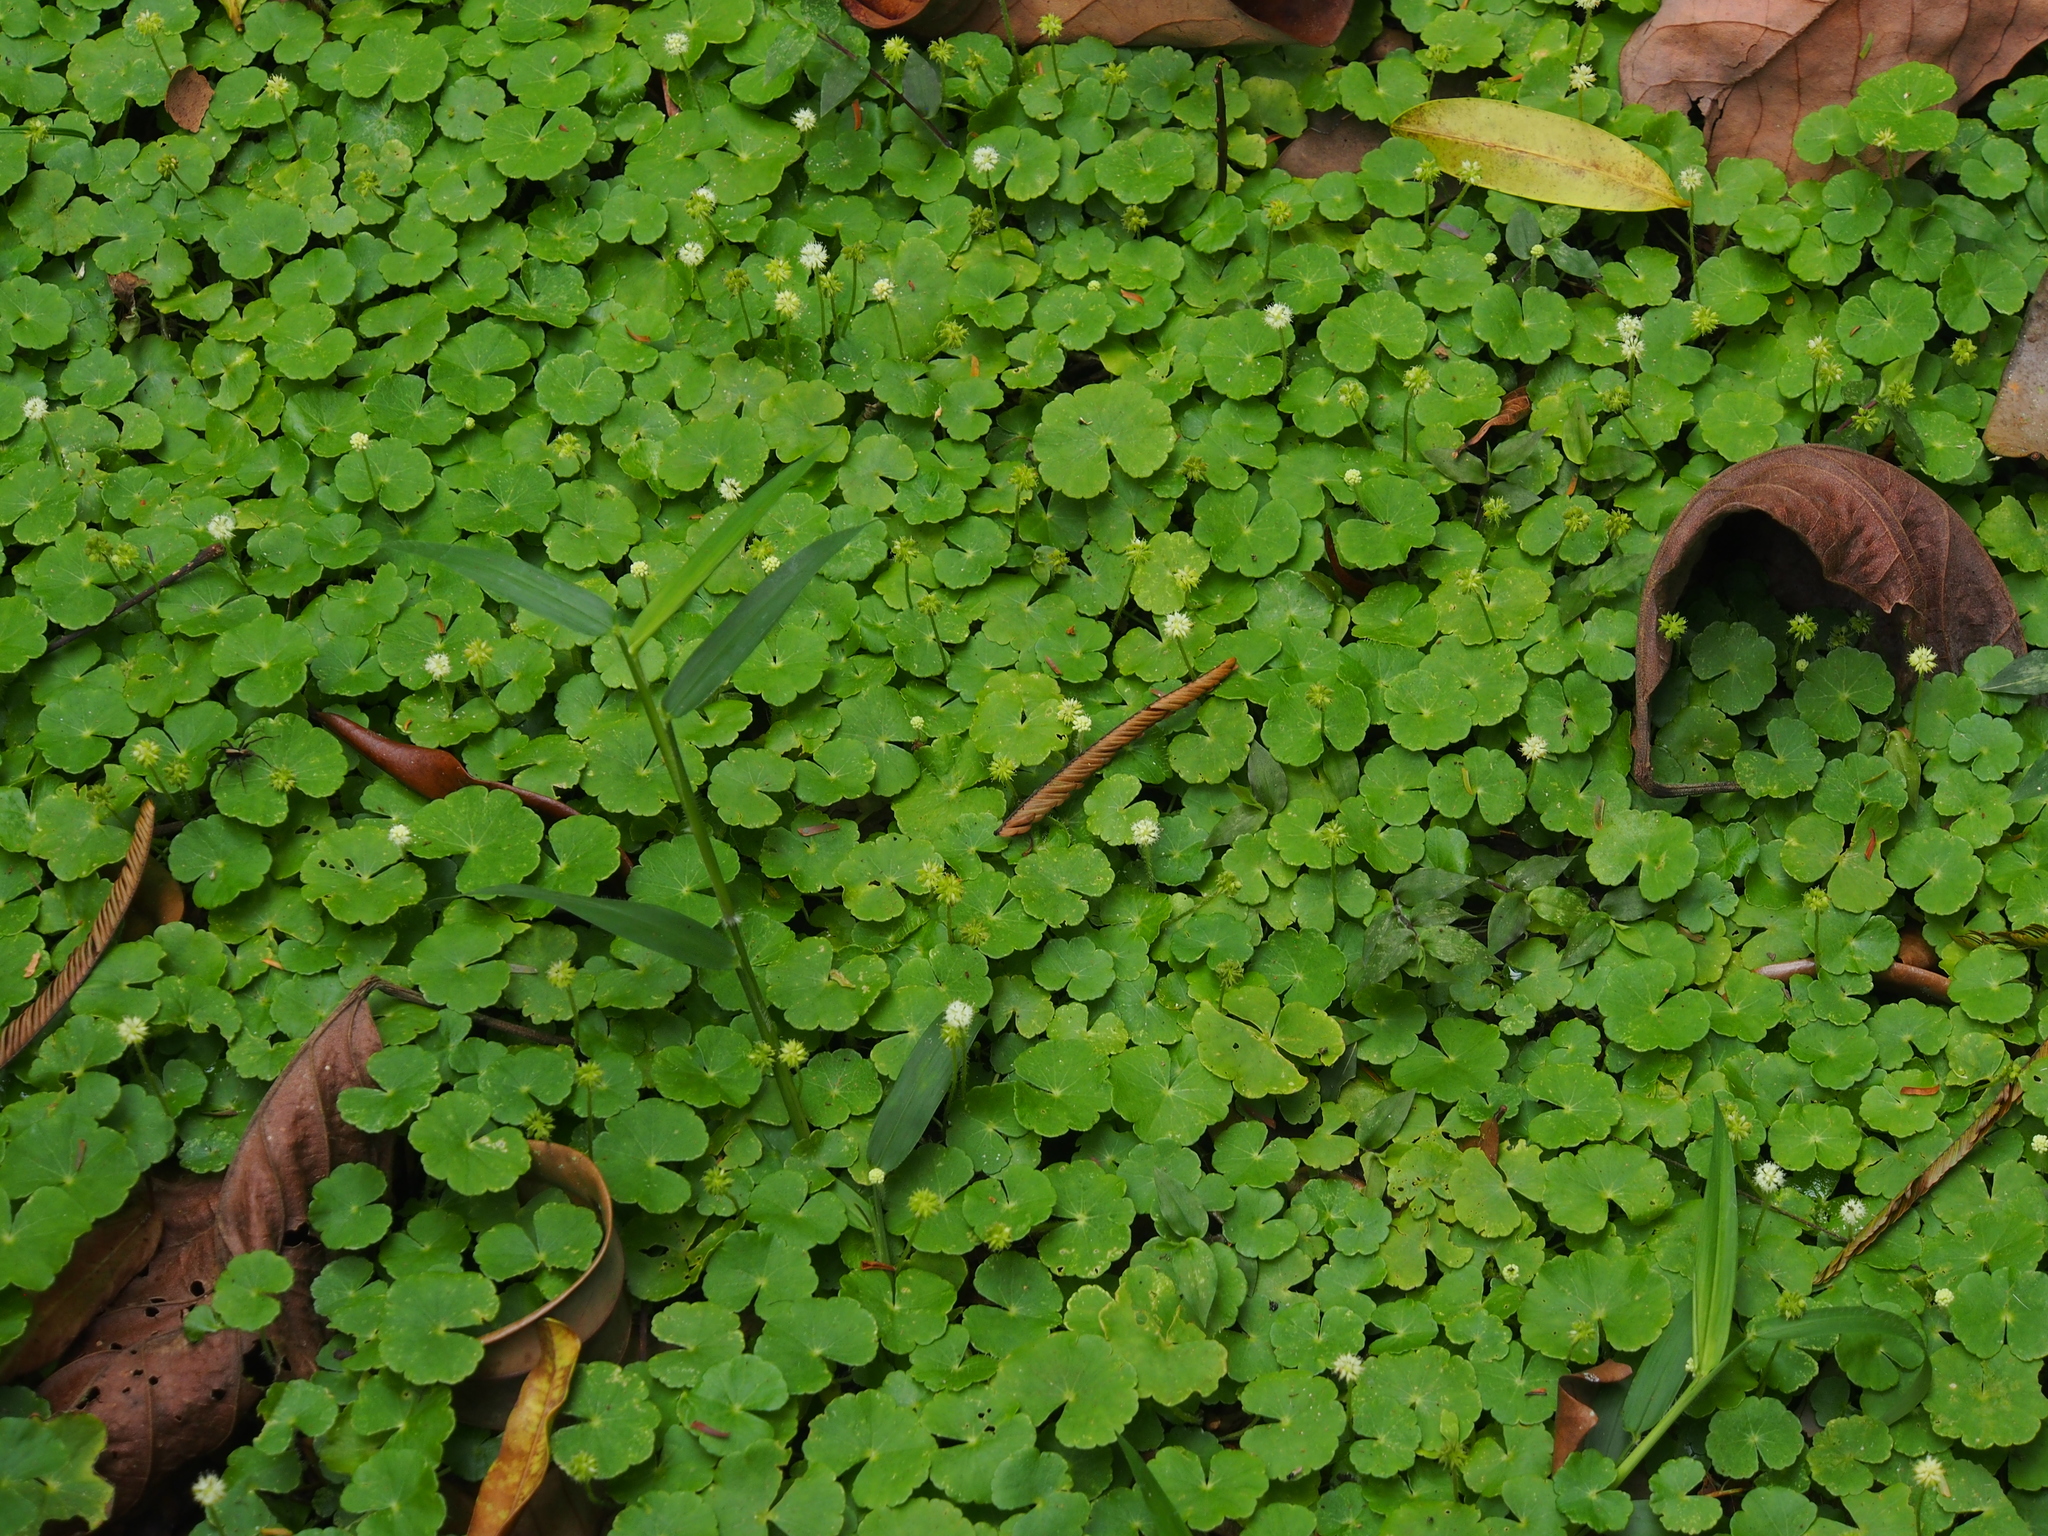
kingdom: Plantae
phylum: Tracheophyta
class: Magnoliopsida
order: Apiales
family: Araliaceae
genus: Hydrocotyle
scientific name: Hydrocotyle leucocephala
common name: Brazilian pennywort
